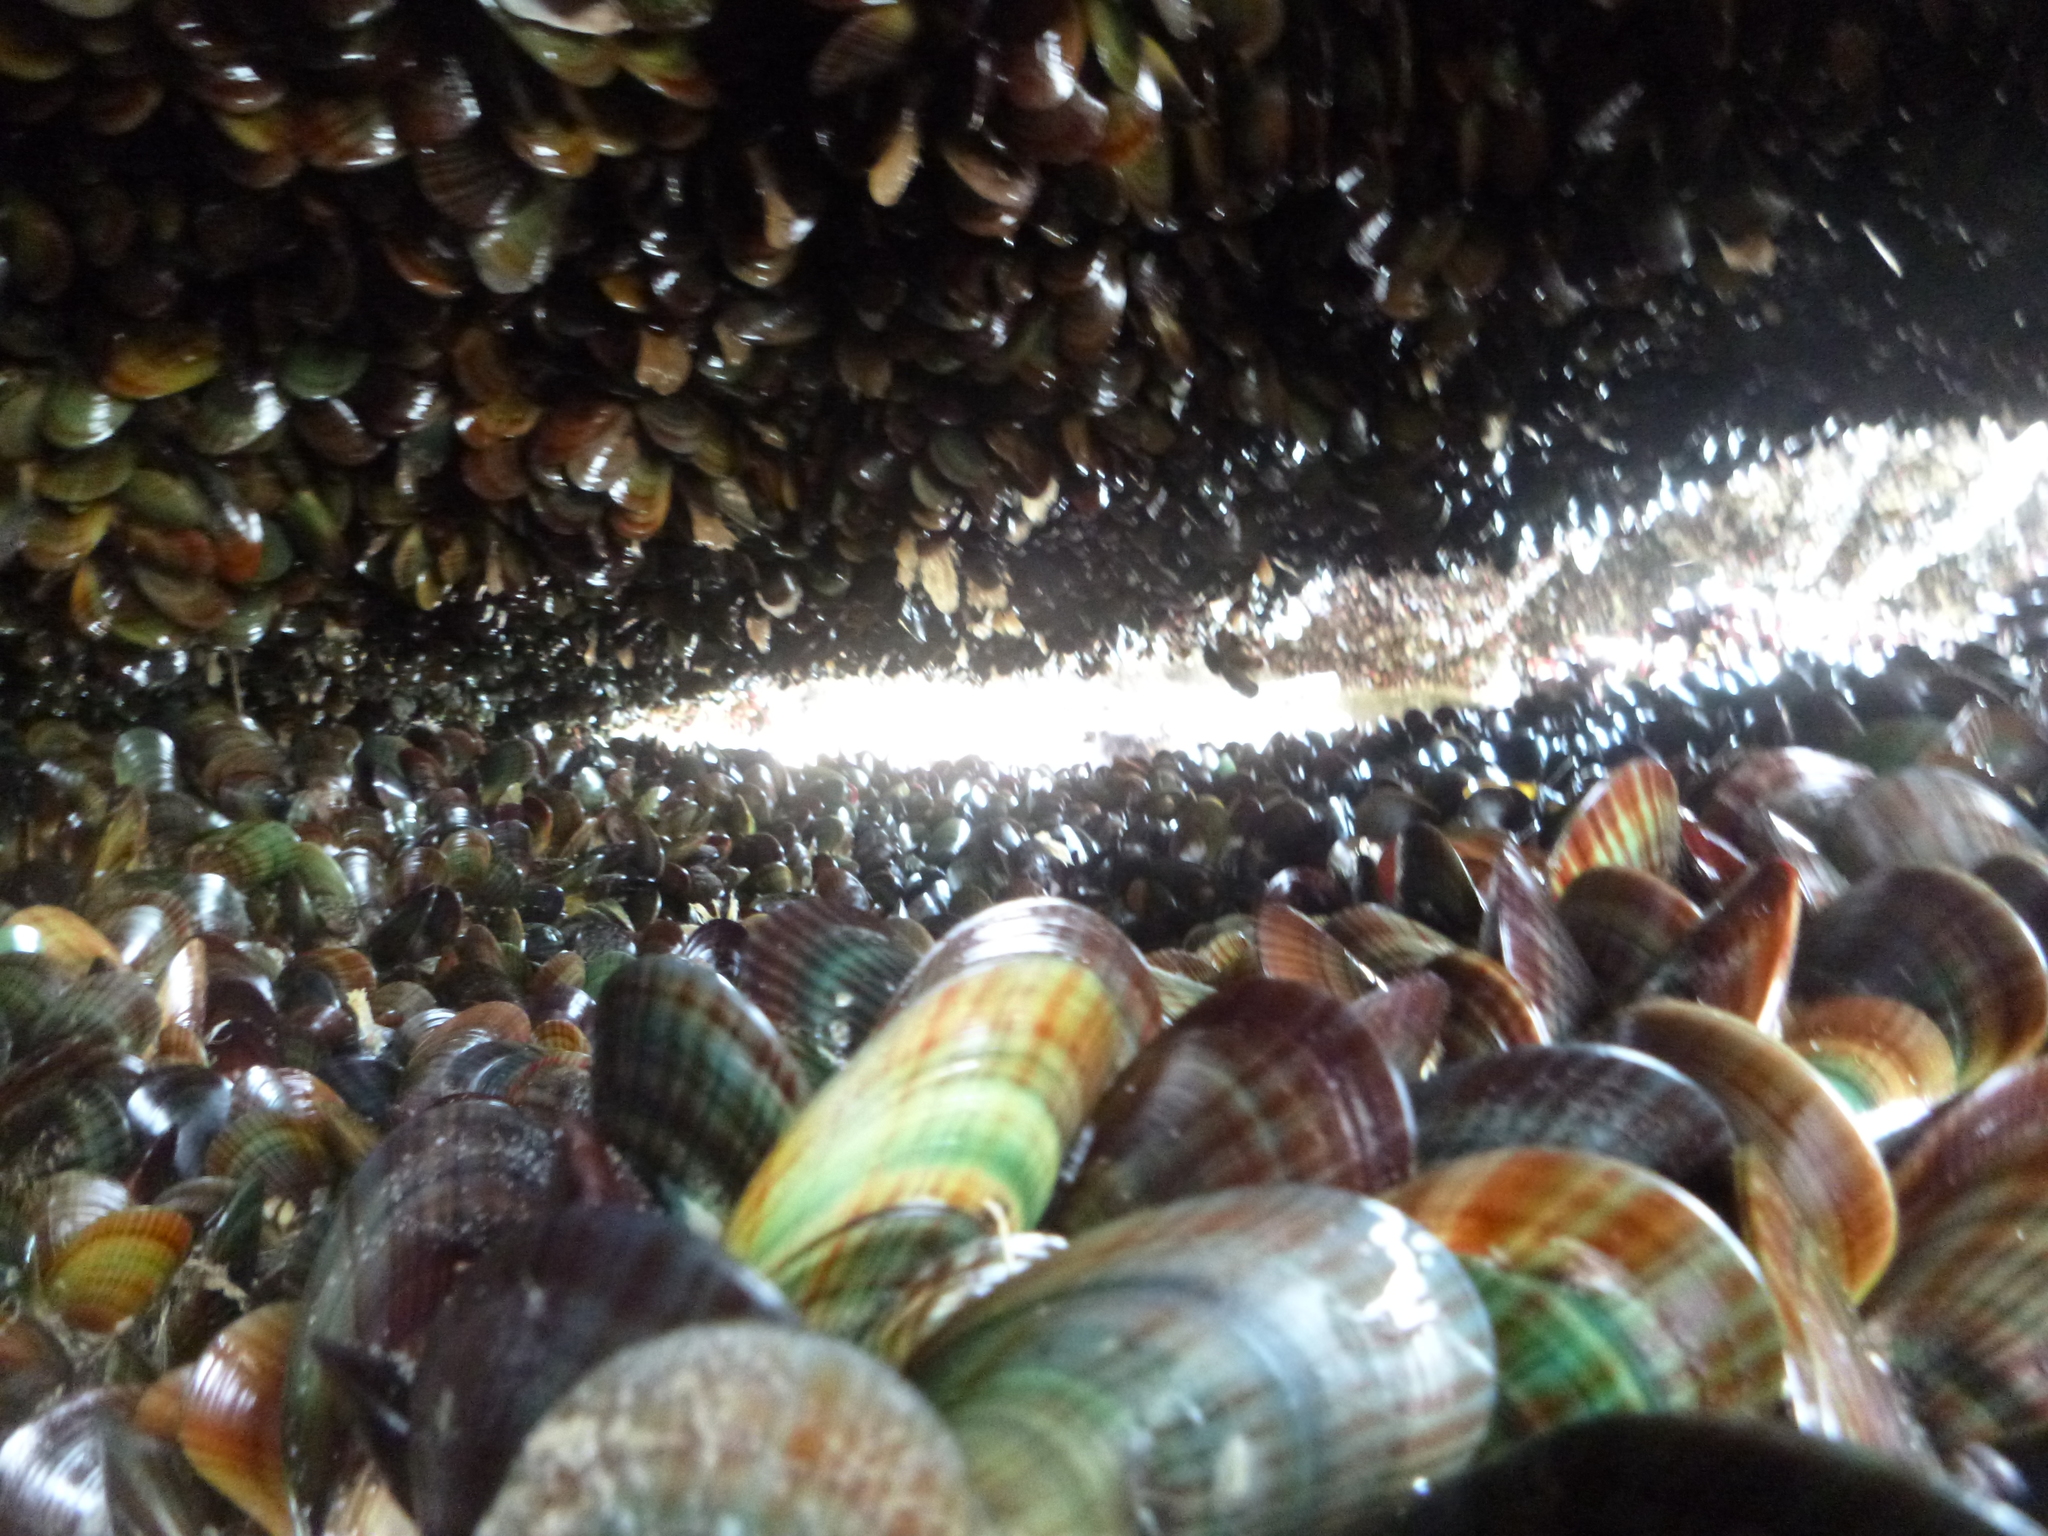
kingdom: Animalia
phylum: Mollusca
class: Bivalvia
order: Mytilida
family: Mytilidae
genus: Perna
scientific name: Perna canaliculus
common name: New zealand greenshelltm
